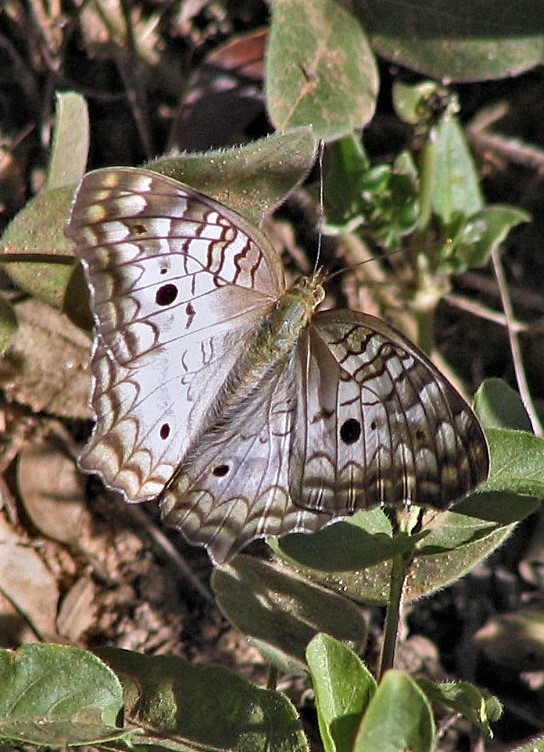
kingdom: Animalia
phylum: Arthropoda
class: Insecta
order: Lepidoptera
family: Nymphalidae
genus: Anartia
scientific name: Anartia jatrophae
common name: White peacock
